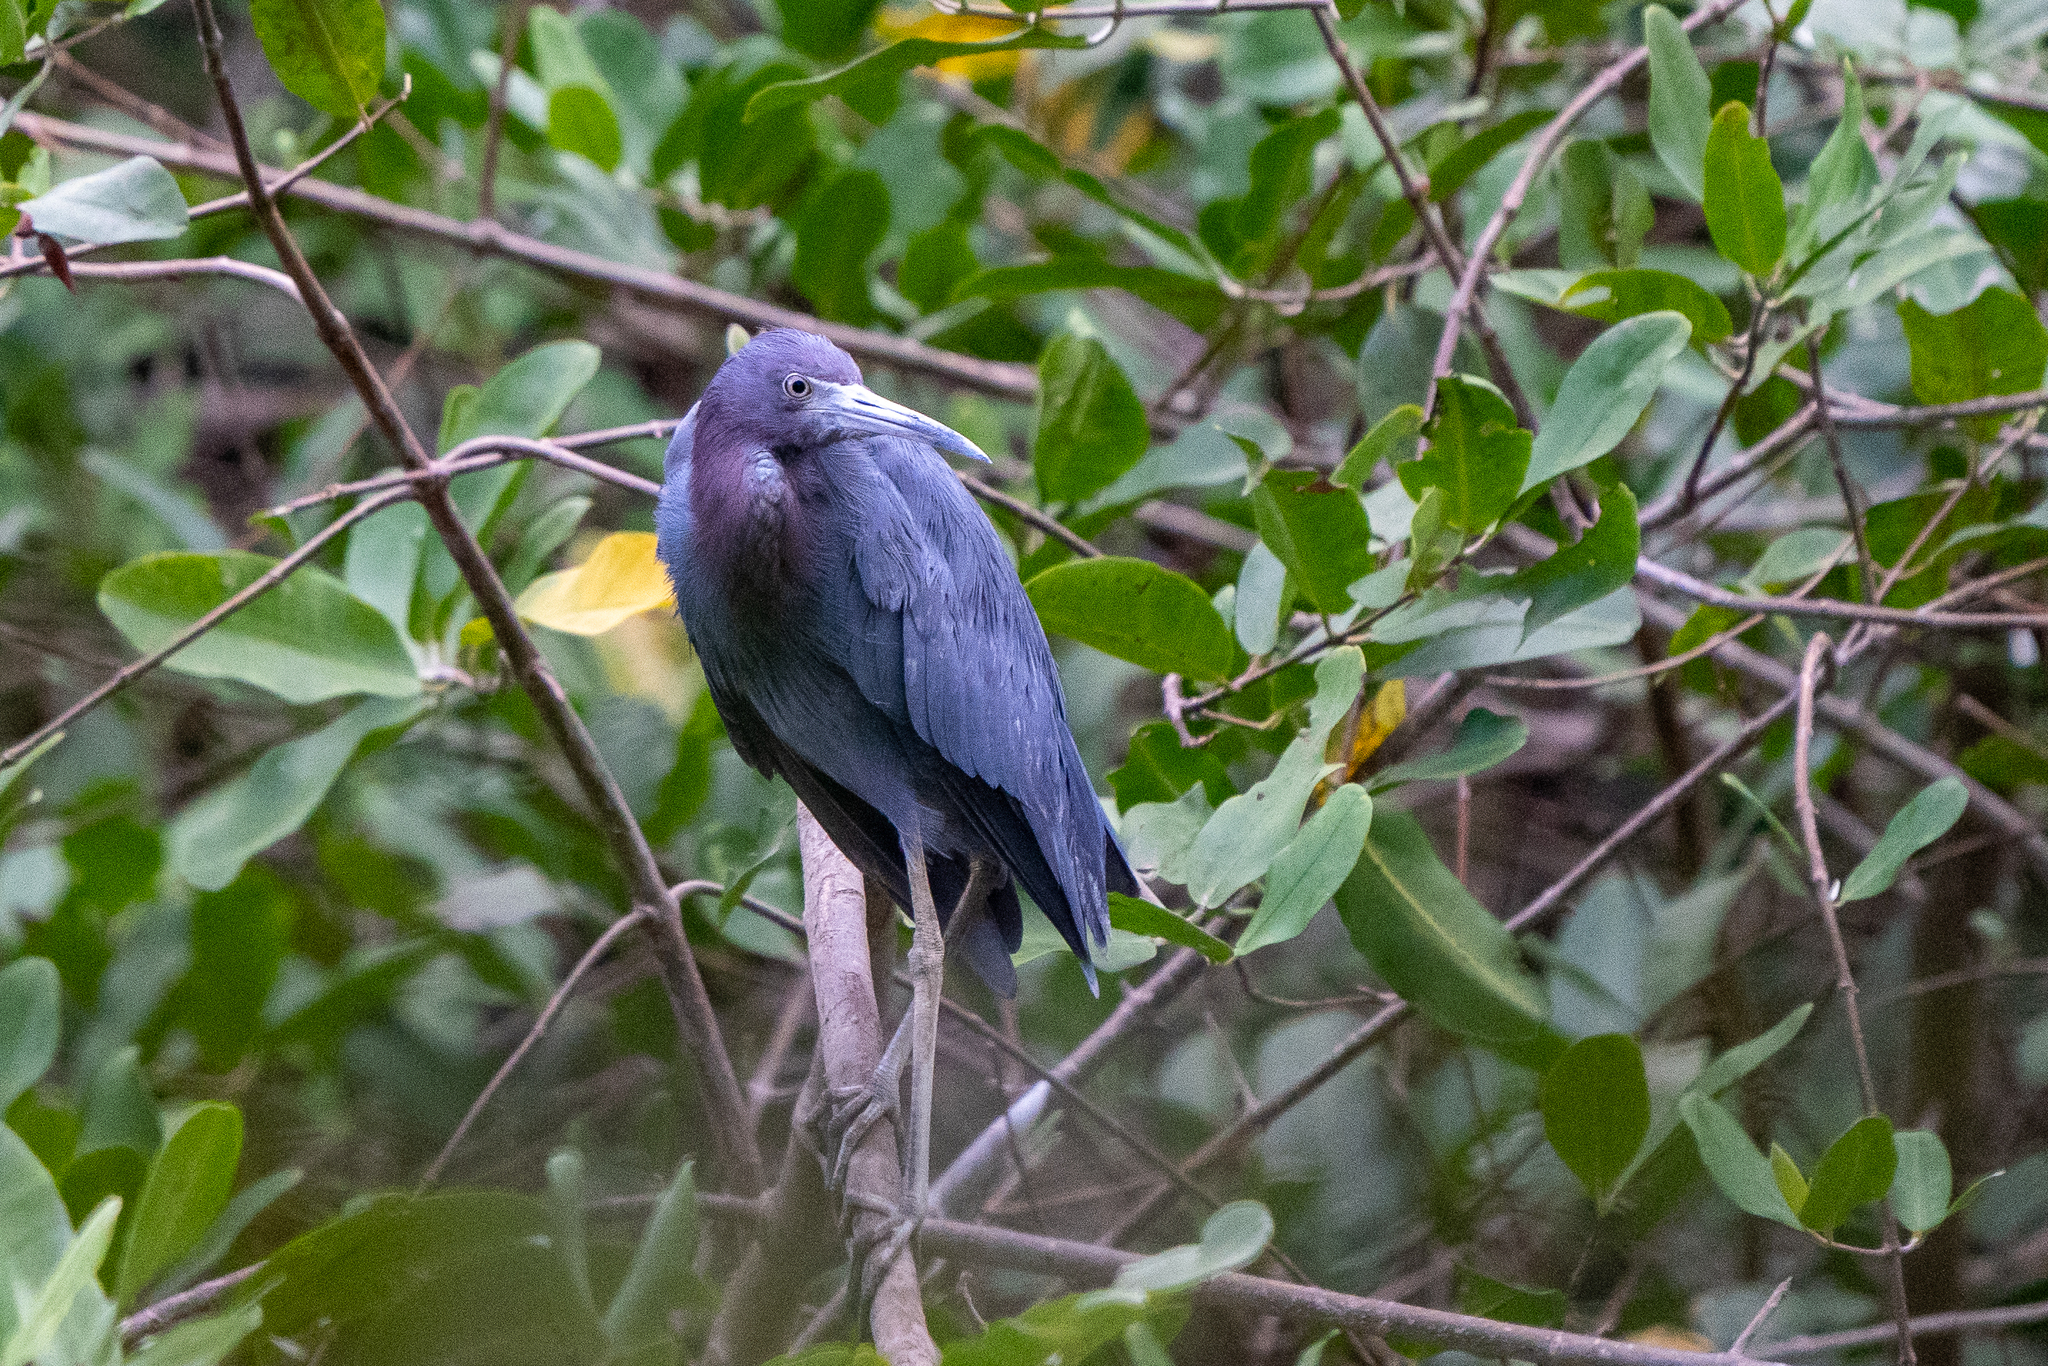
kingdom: Animalia
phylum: Chordata
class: Aves
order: Pelecaniformes
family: Ardeidae
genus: Egretta
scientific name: Egretta caerulea
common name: Little blue heron
